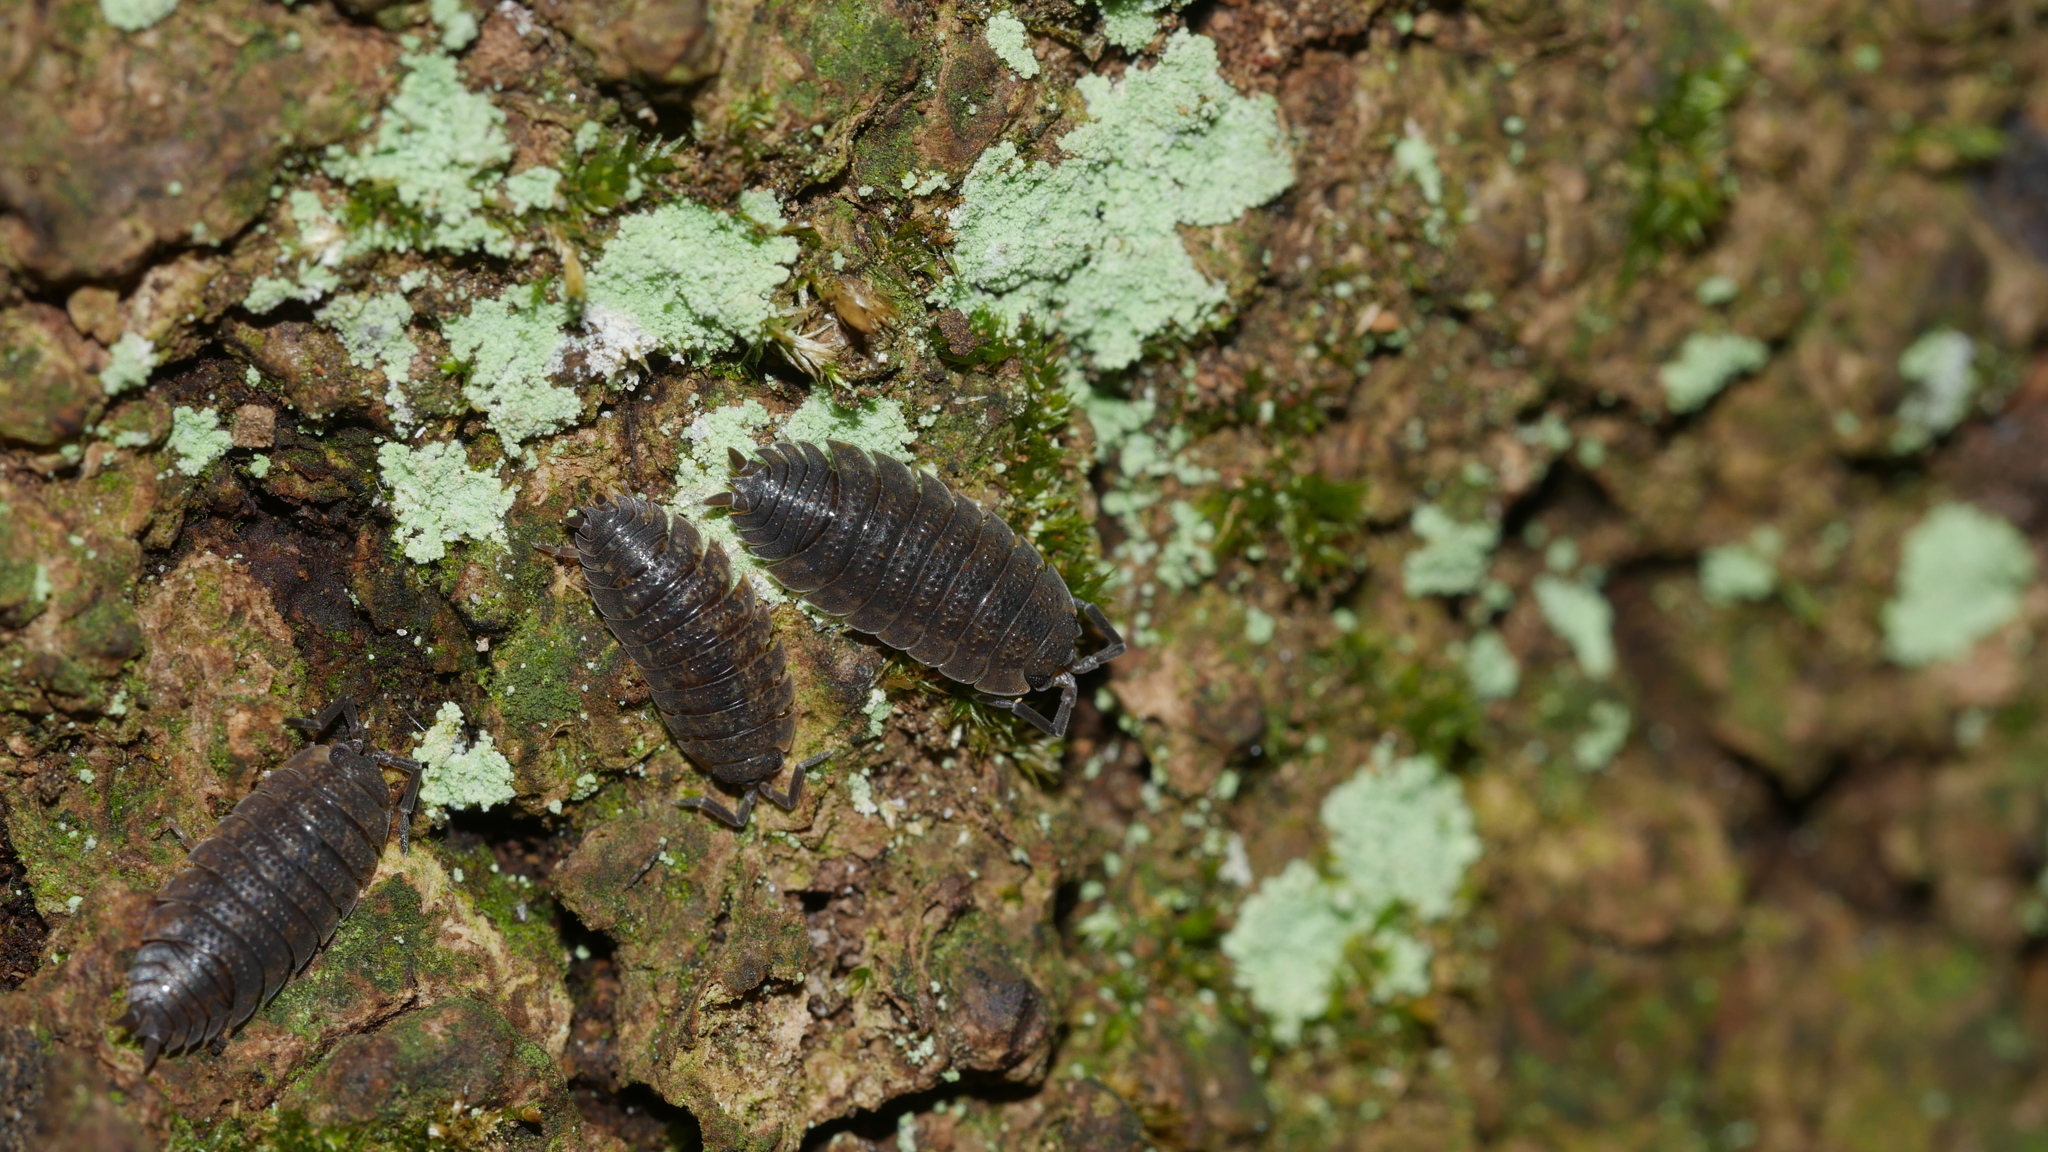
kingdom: Animalia
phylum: Arthropoda
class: Malacostraca
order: Isopoda
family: Porcellionidae
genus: Porcellio
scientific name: Porcellio scaber
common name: Common rough woodlouse
